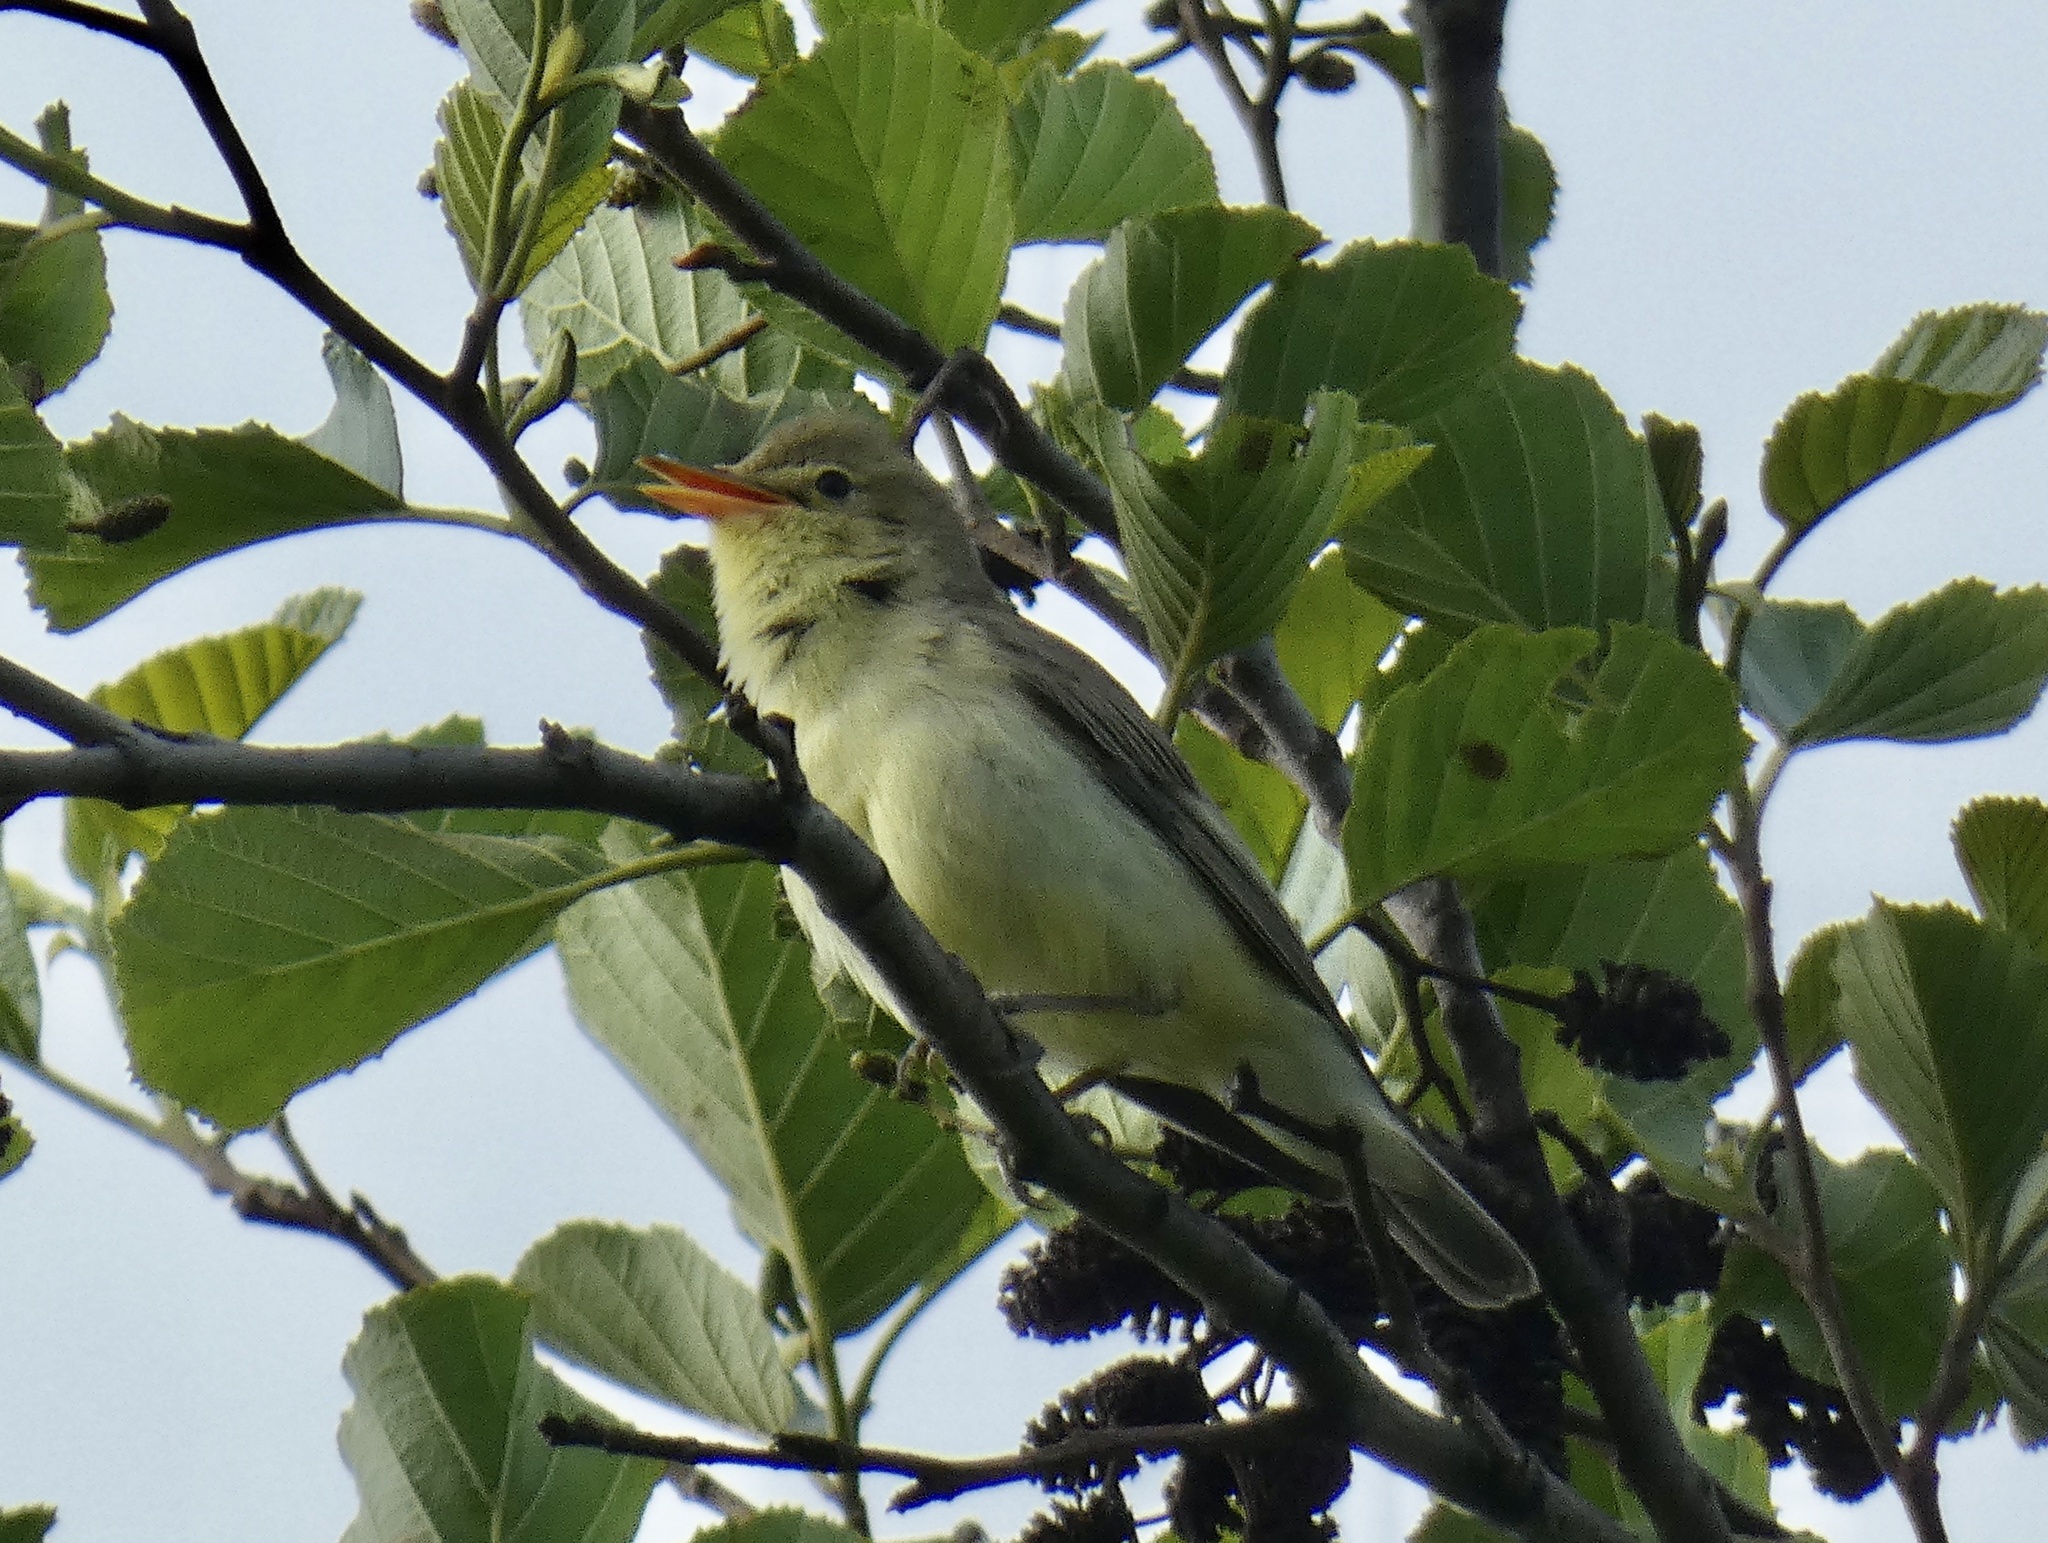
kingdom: Animalia
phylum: Chordata
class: Aves
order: Passeriformes
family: Acrocephalidae
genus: Hippolais
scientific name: Hippolais icterina
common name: Icterine warbler
